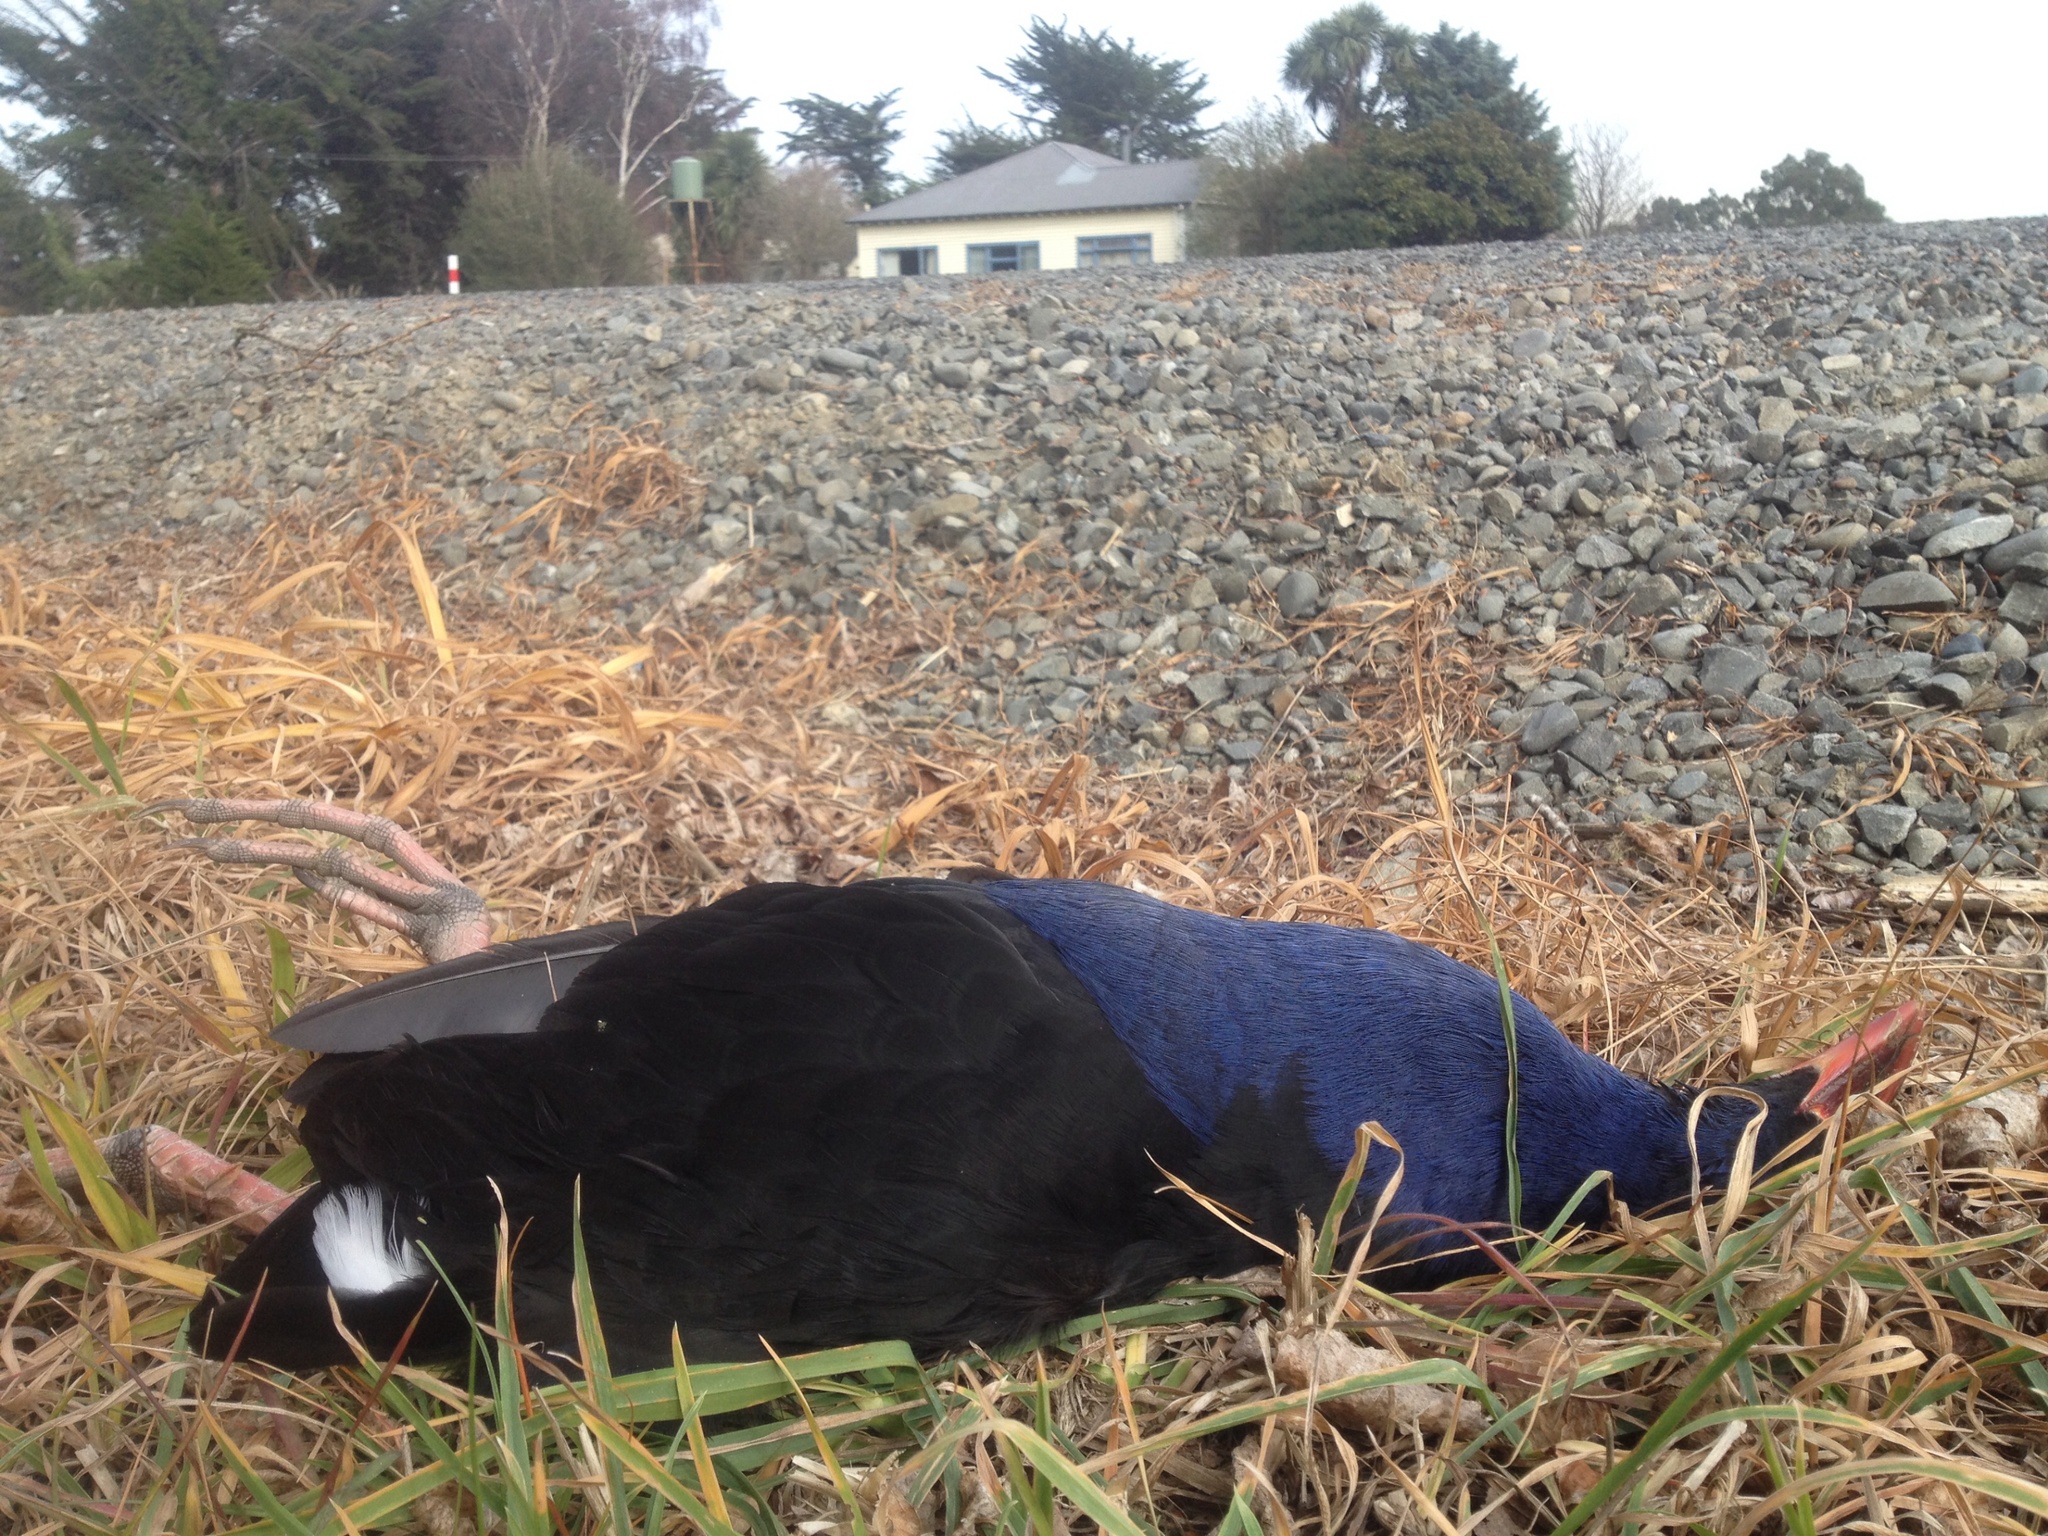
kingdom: Animalia
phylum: Chordata
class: Aves
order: Gruiformes
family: Rallidae
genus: Porphyrio
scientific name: Porphyrio melanotus
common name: Australasian swamphen
